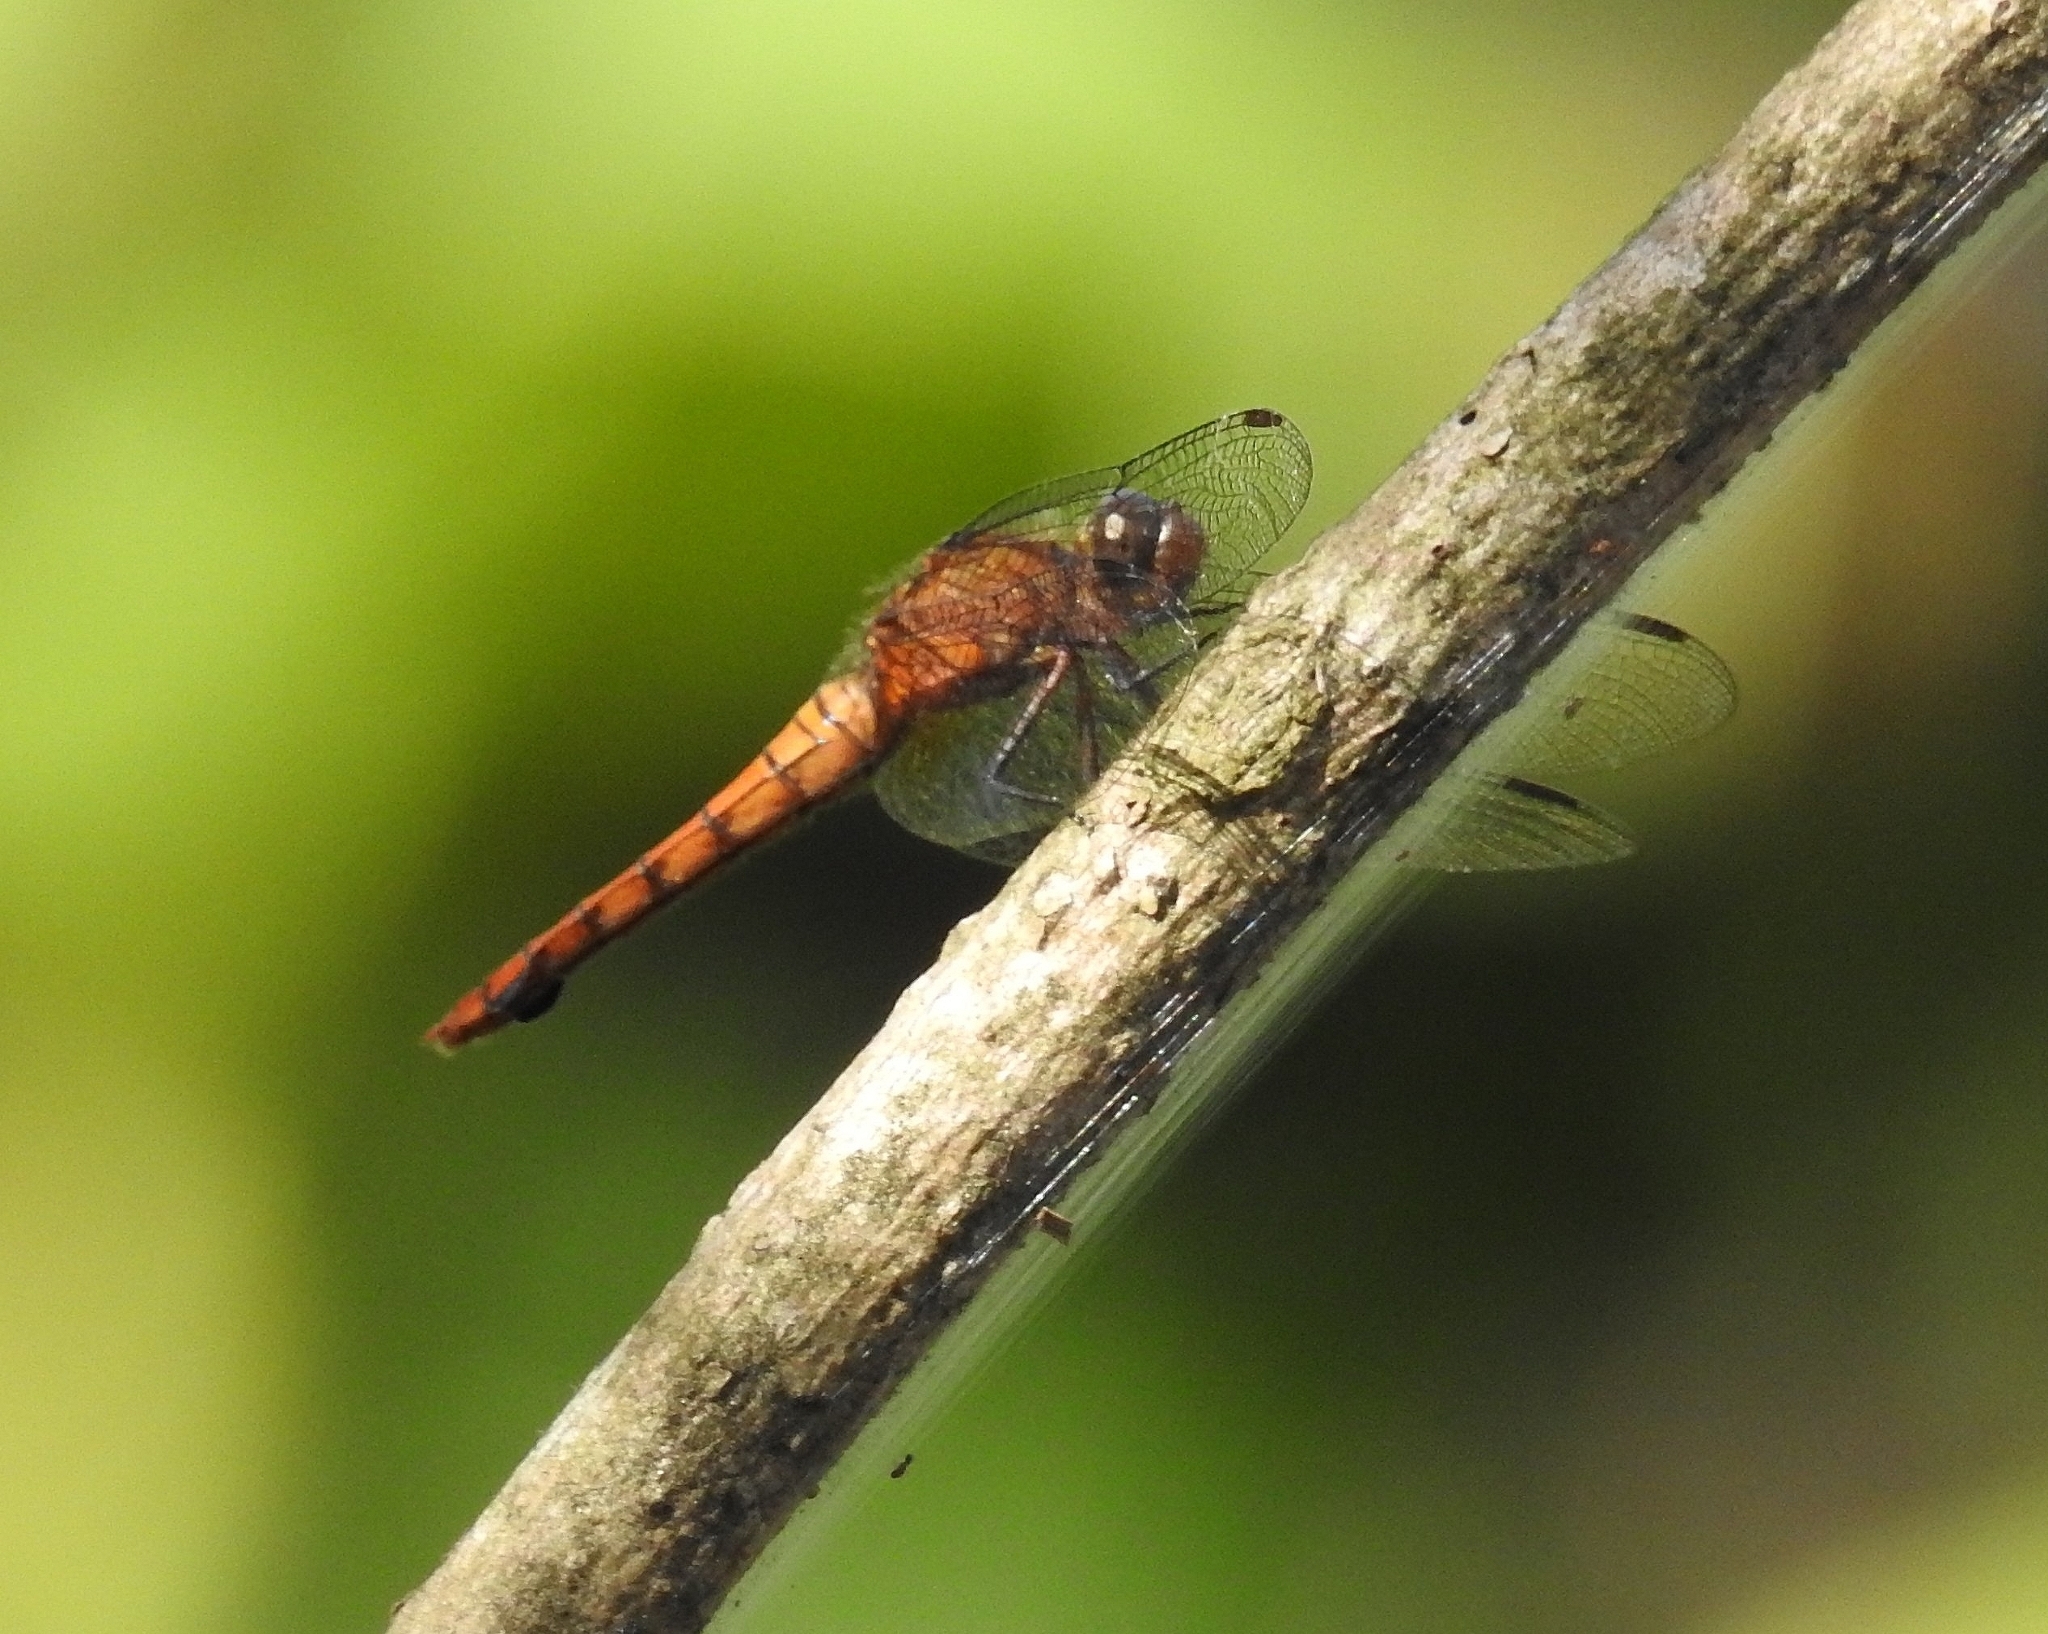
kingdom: Animalia
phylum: Arthropoda
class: Insecta
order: Odonata
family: Libellulidae
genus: Orthetrum
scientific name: Orthetrum chrysis
